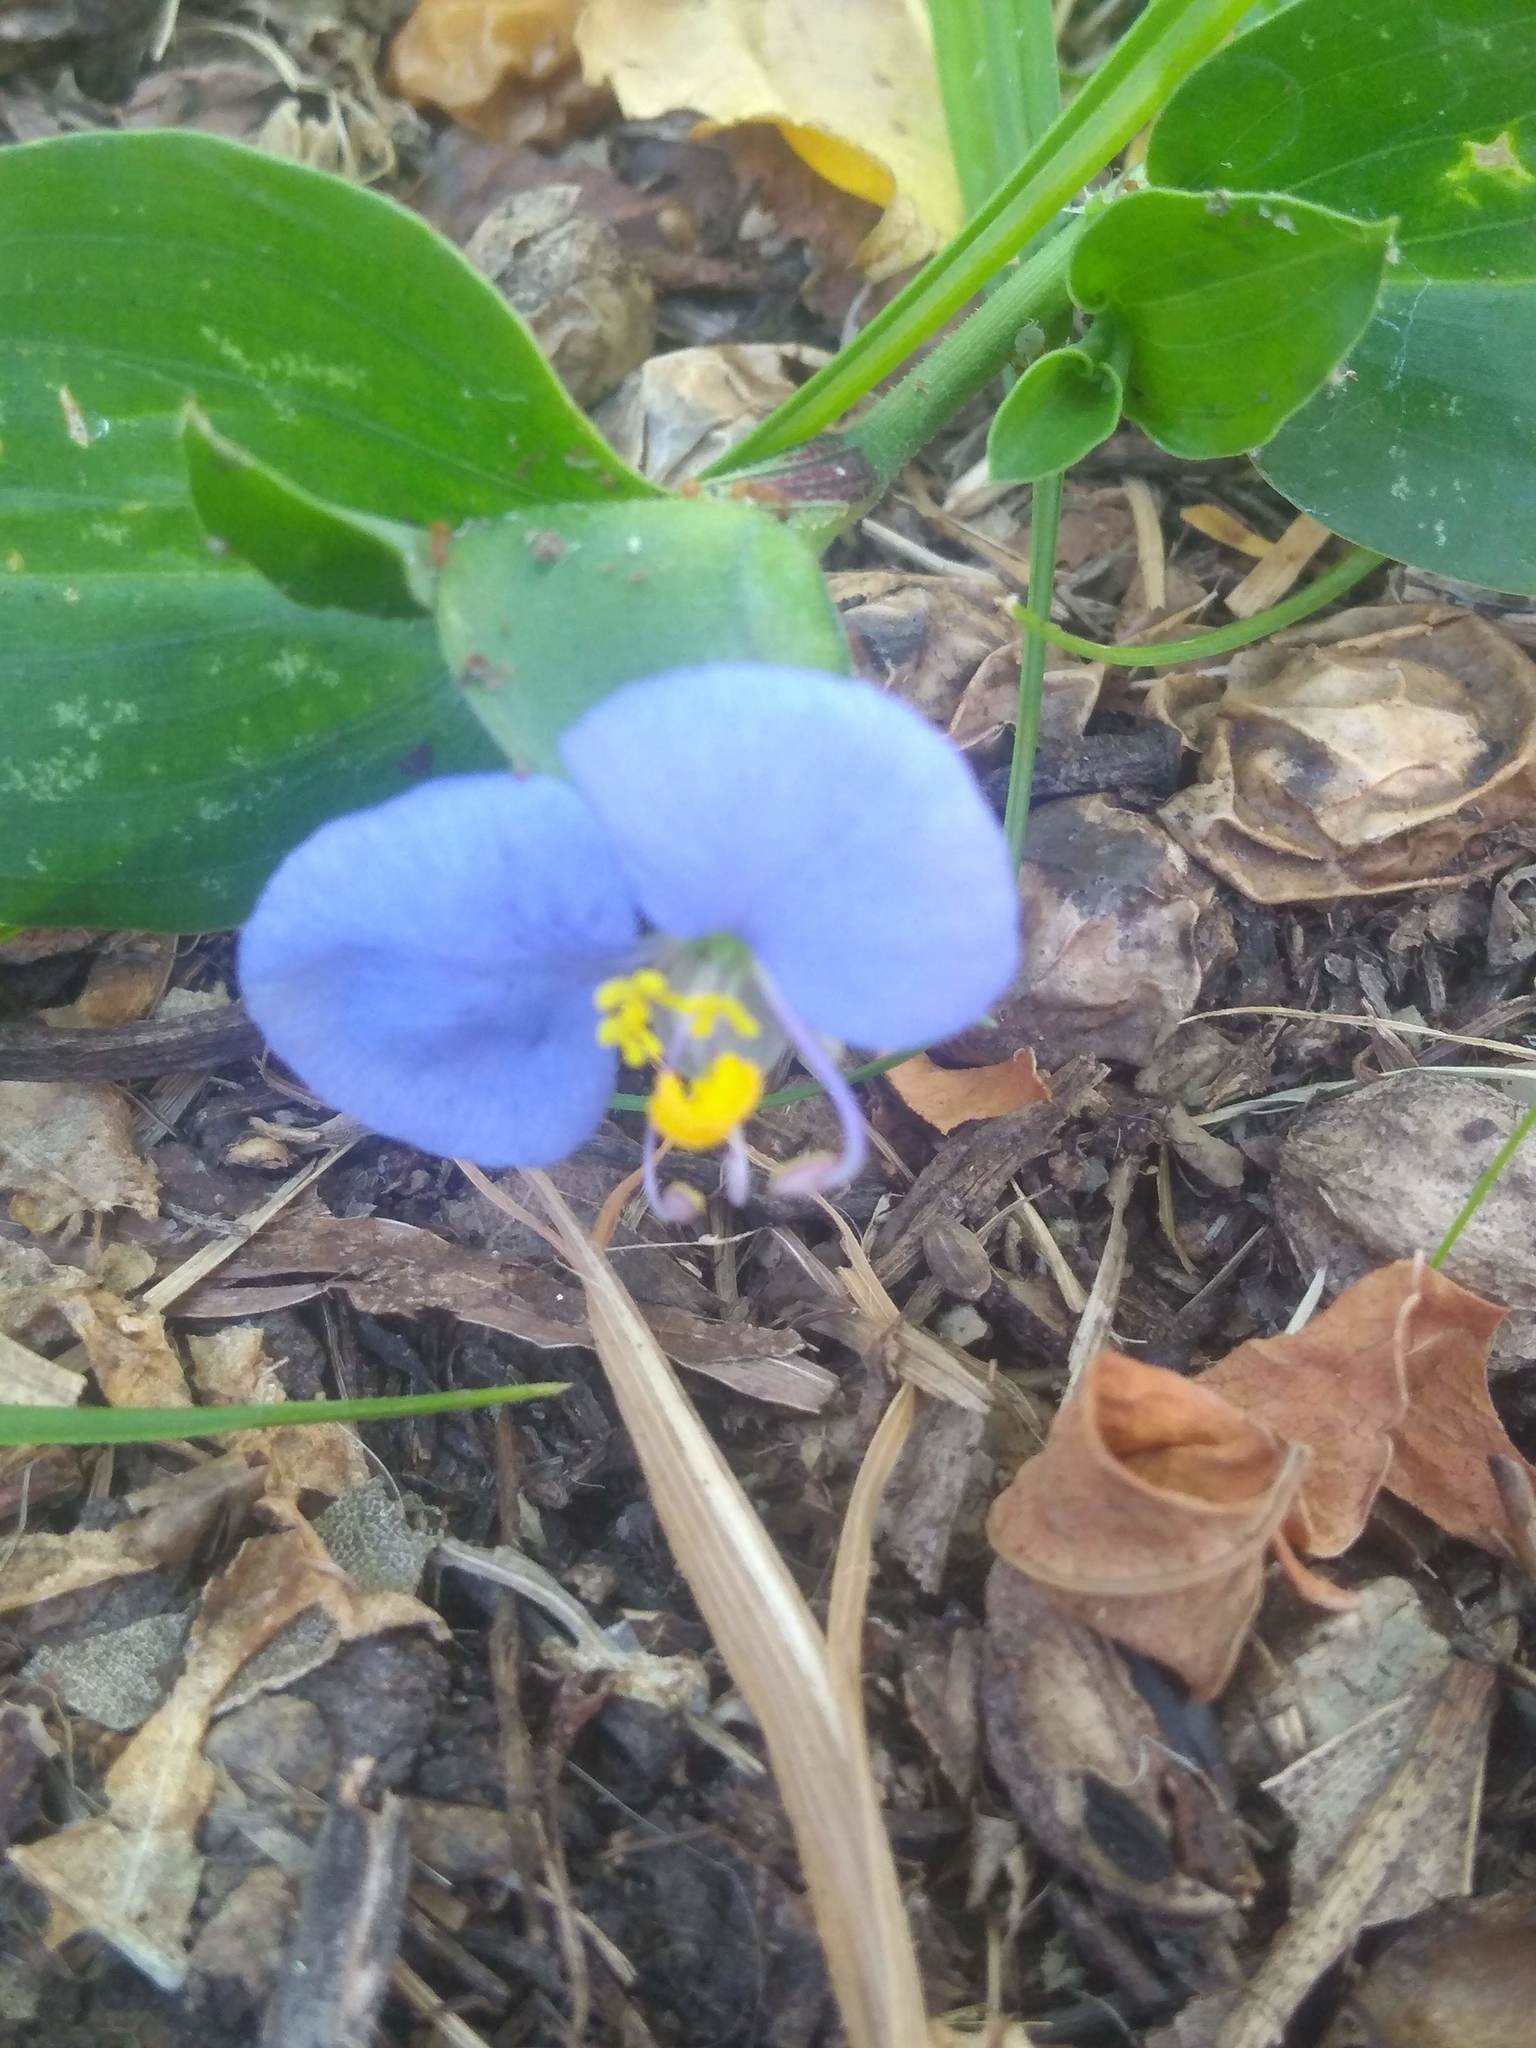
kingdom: Plantae
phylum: Tracheophyta
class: Liliopsida
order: Commelinales
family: Commelinaceae
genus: Commelina
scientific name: Commelina erecta
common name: Blousel blommetjie
